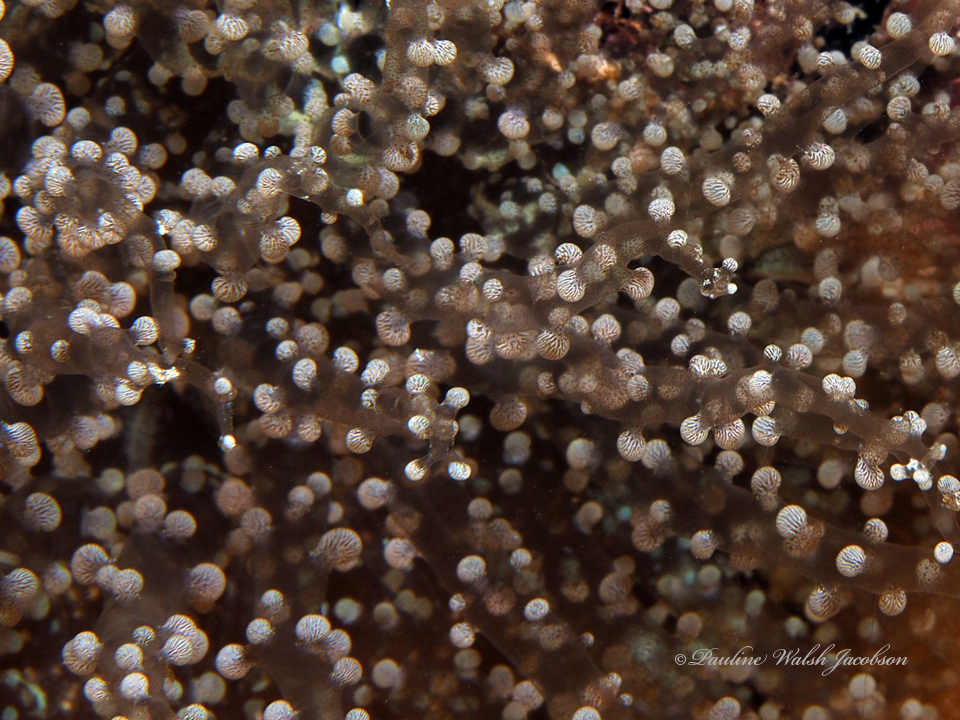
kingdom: Animalia
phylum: Cnidaria
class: Anthozoa
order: Actiniaria
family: Aiptasiidae
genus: Laviactis
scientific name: Laviactis lucida
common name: Atlantic beaded anemone
